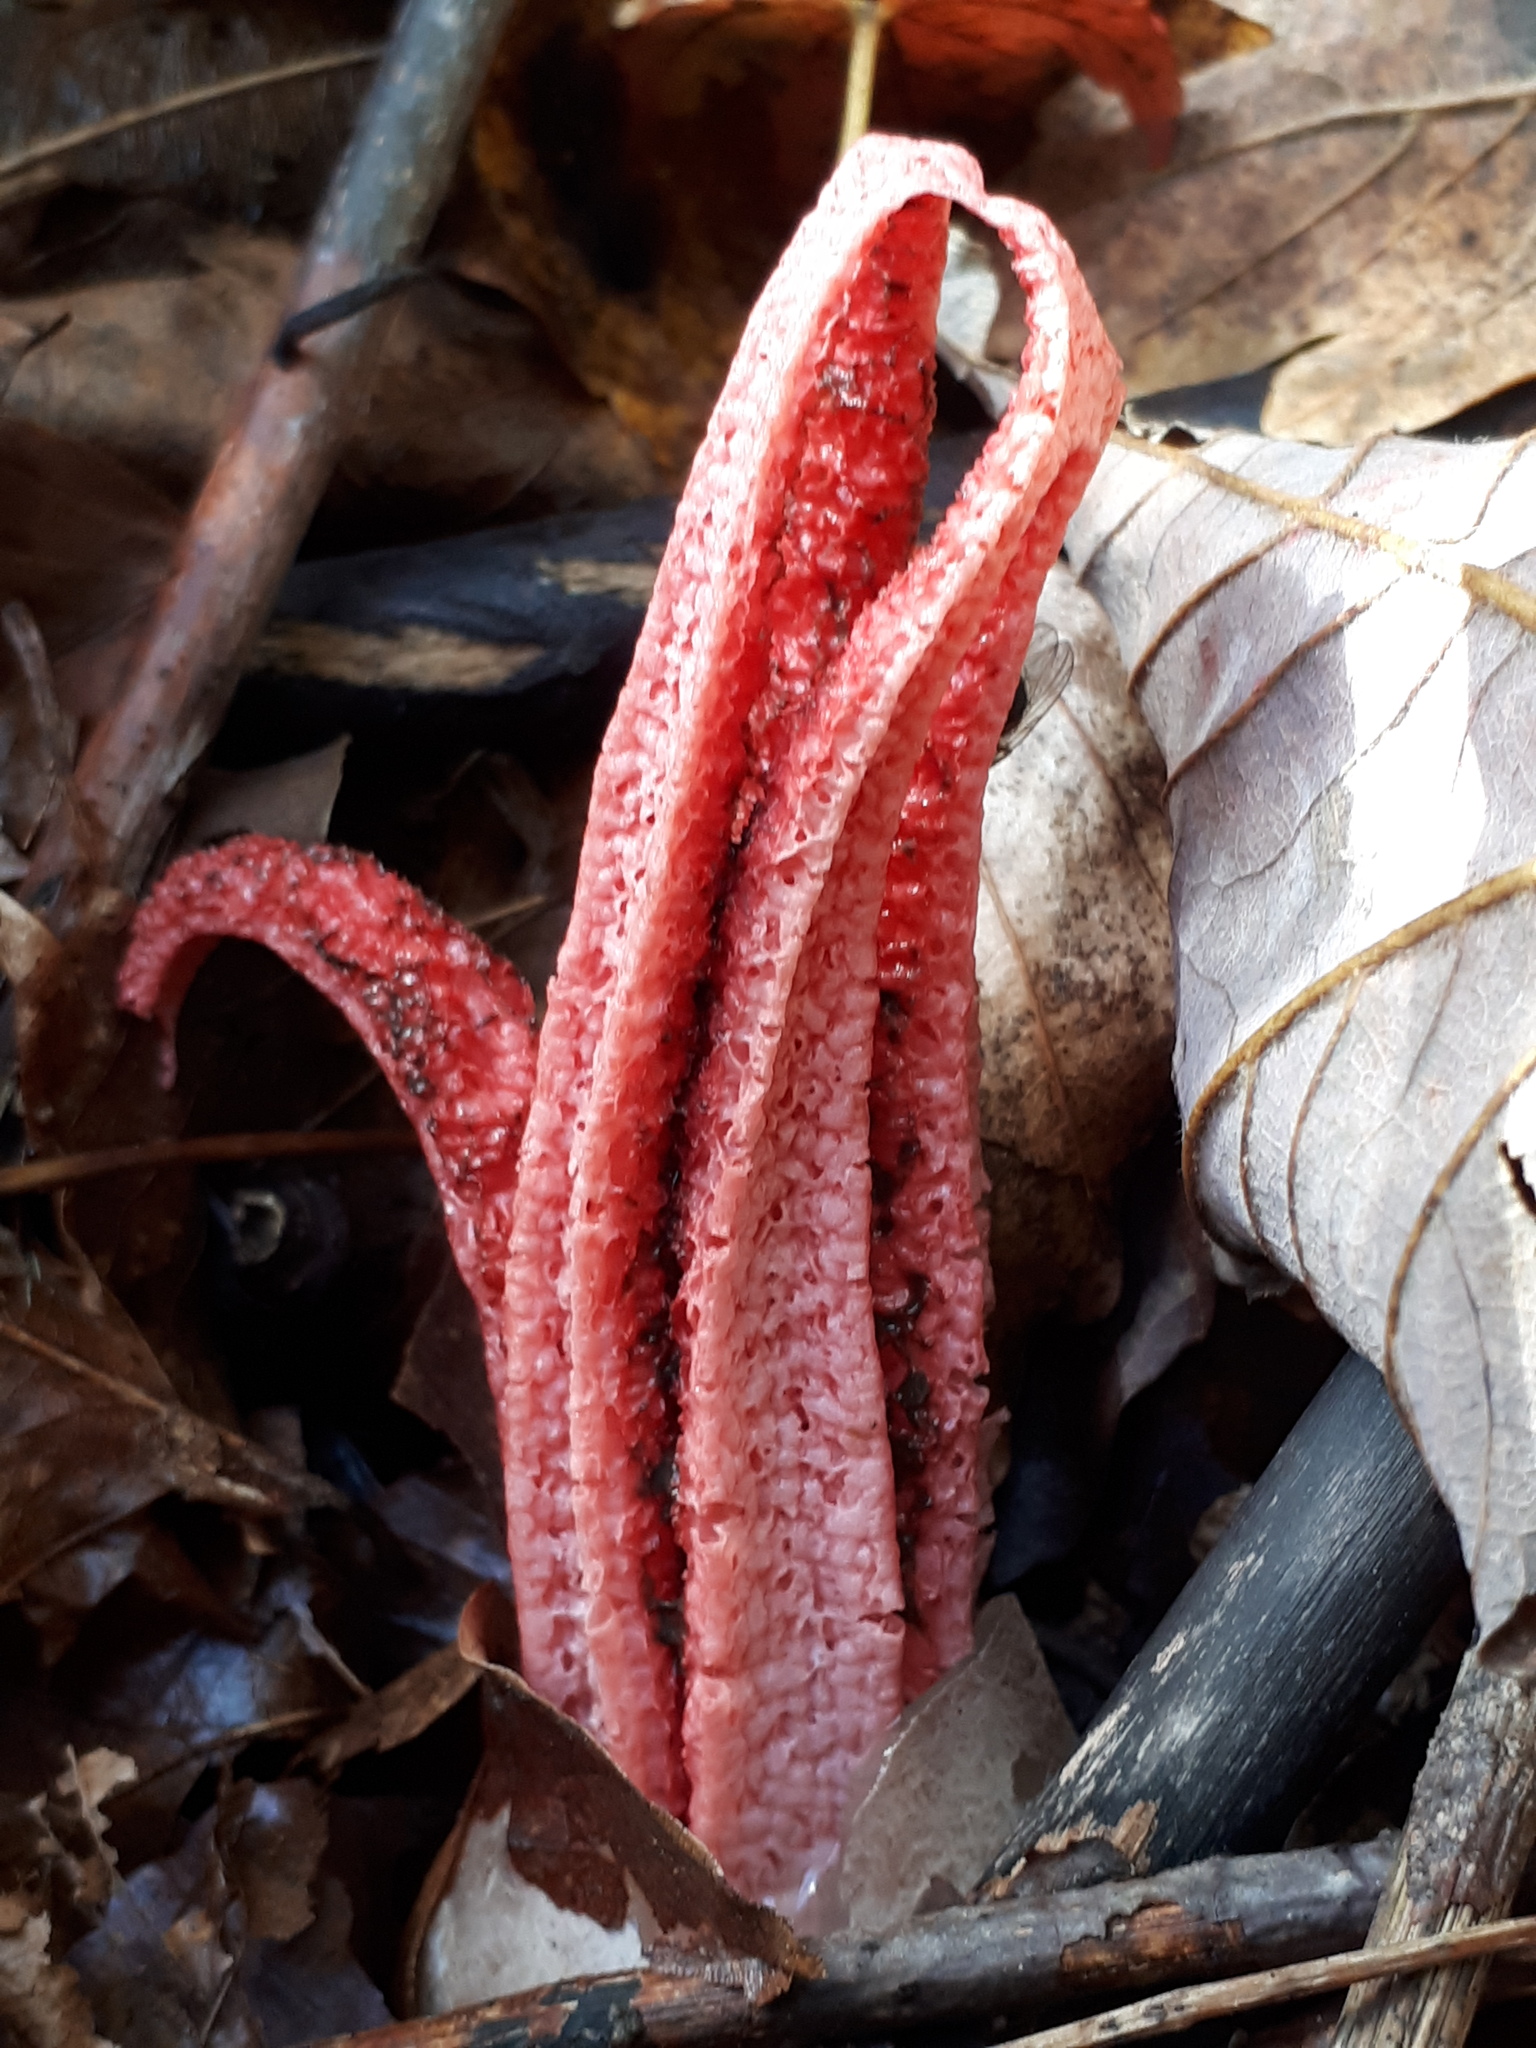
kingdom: Fungi
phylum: Basidiomycota
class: Agaricomycetes
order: Phallales
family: Phallaceae
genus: Clathrus
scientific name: Clathrus archeri
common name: Devil's fingers
